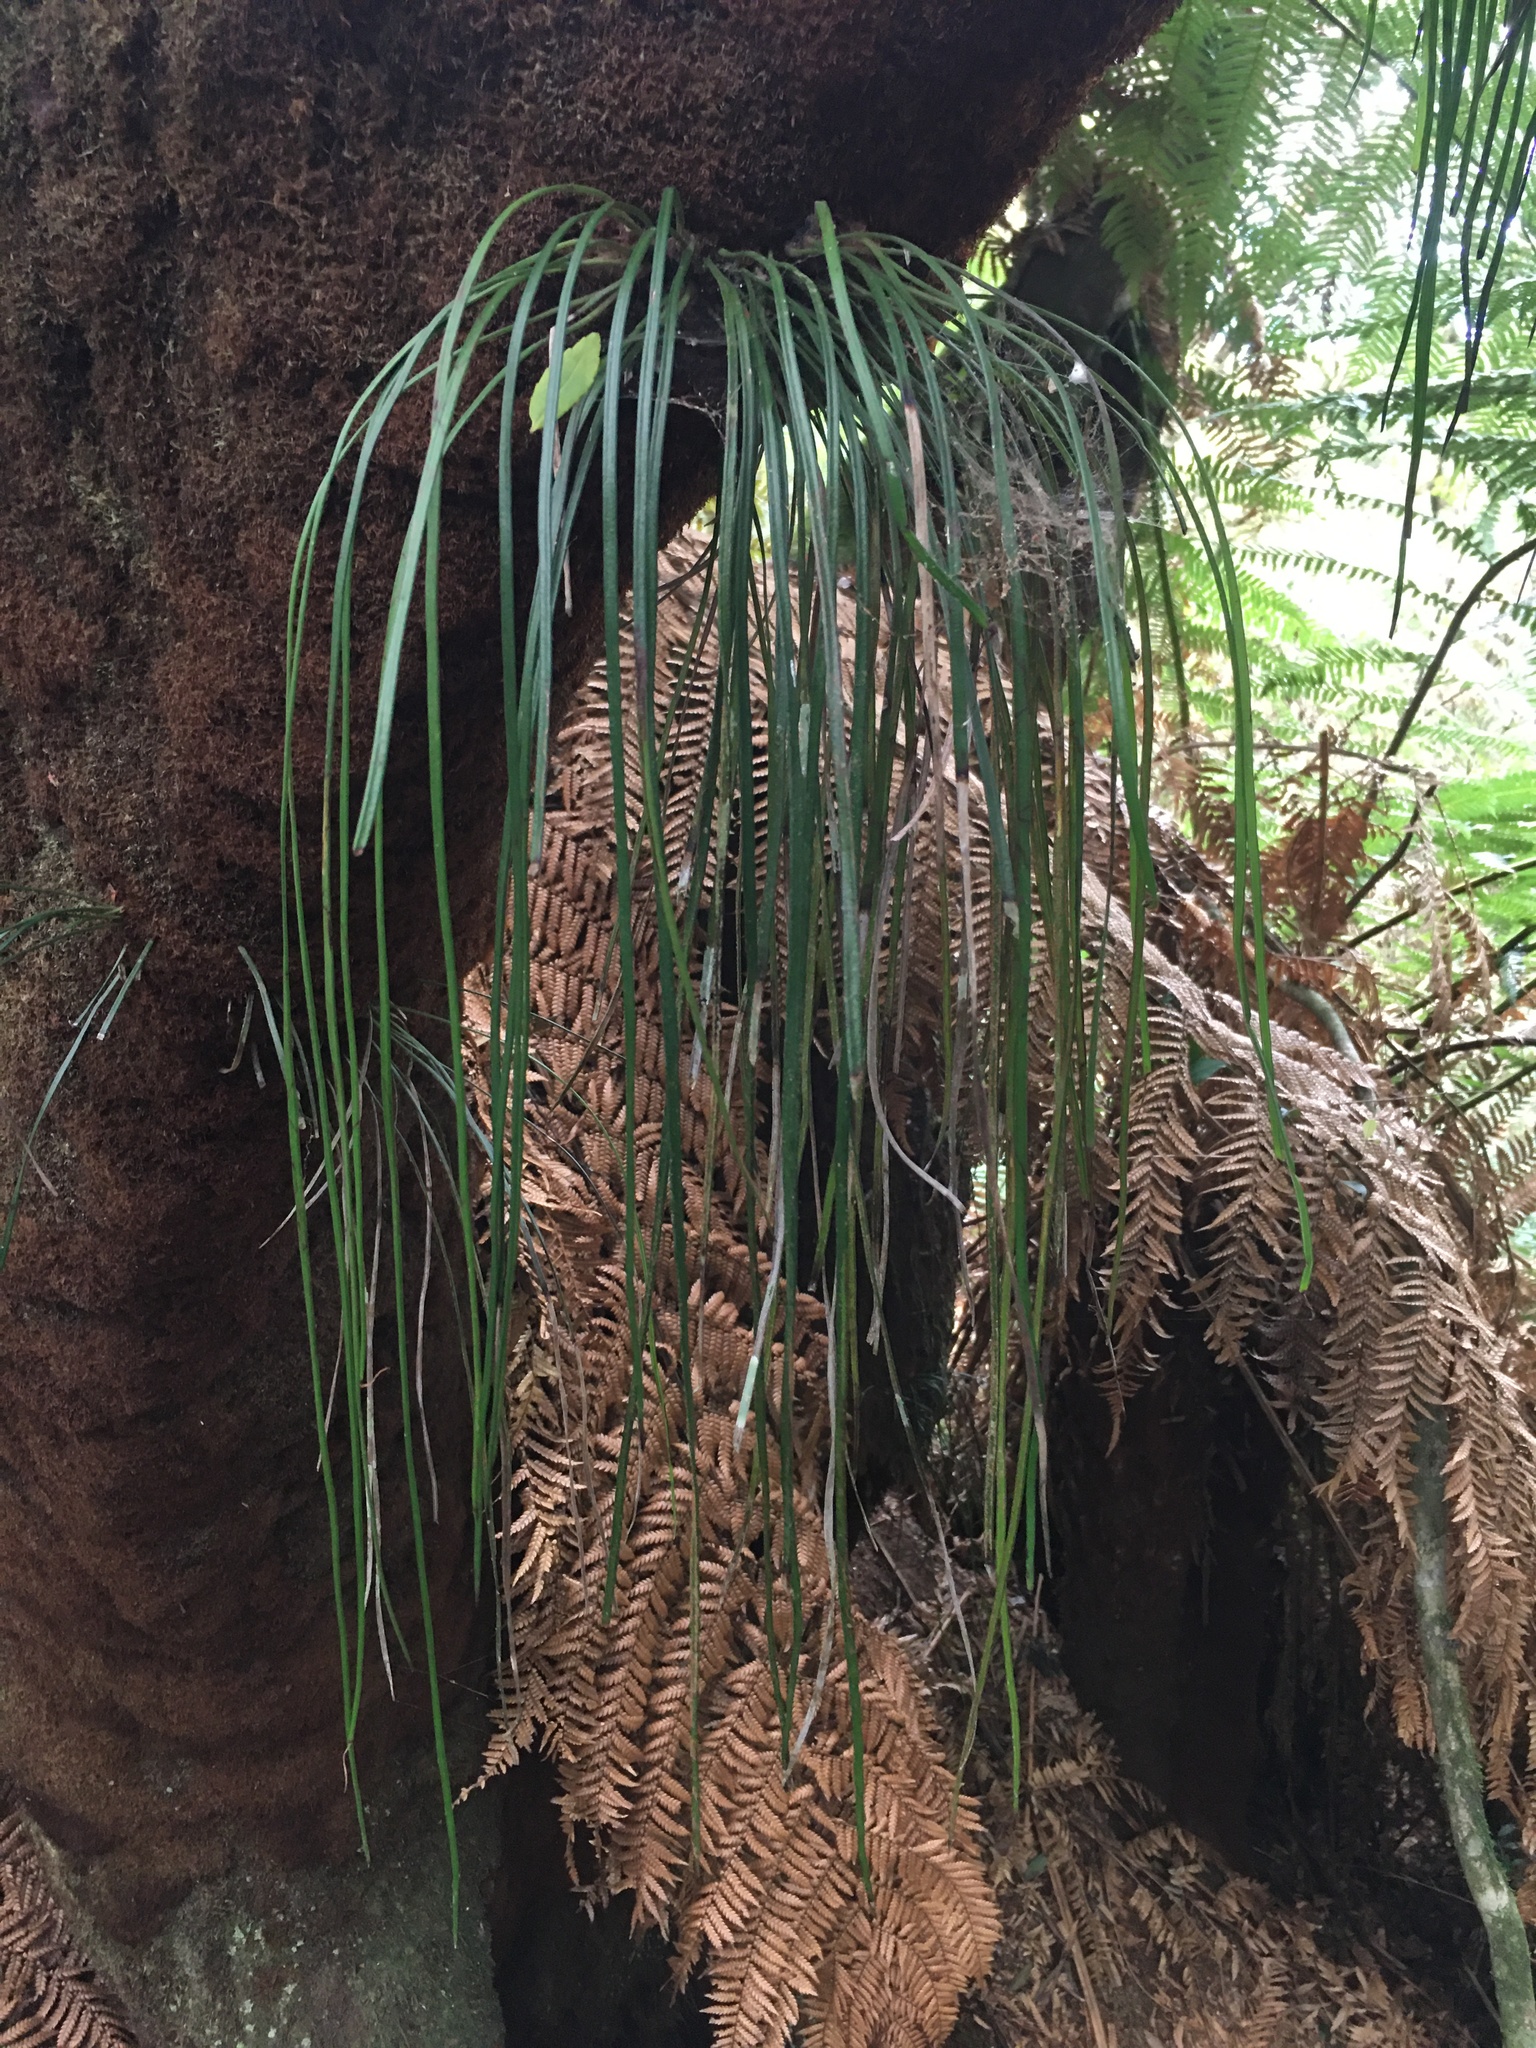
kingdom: Plantae
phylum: Tracheophyta
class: Polypodiopsida
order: Polypodiales
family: Pteridaceae
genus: Vittaria
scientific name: Vittaria lineata
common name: Shoestring fern
